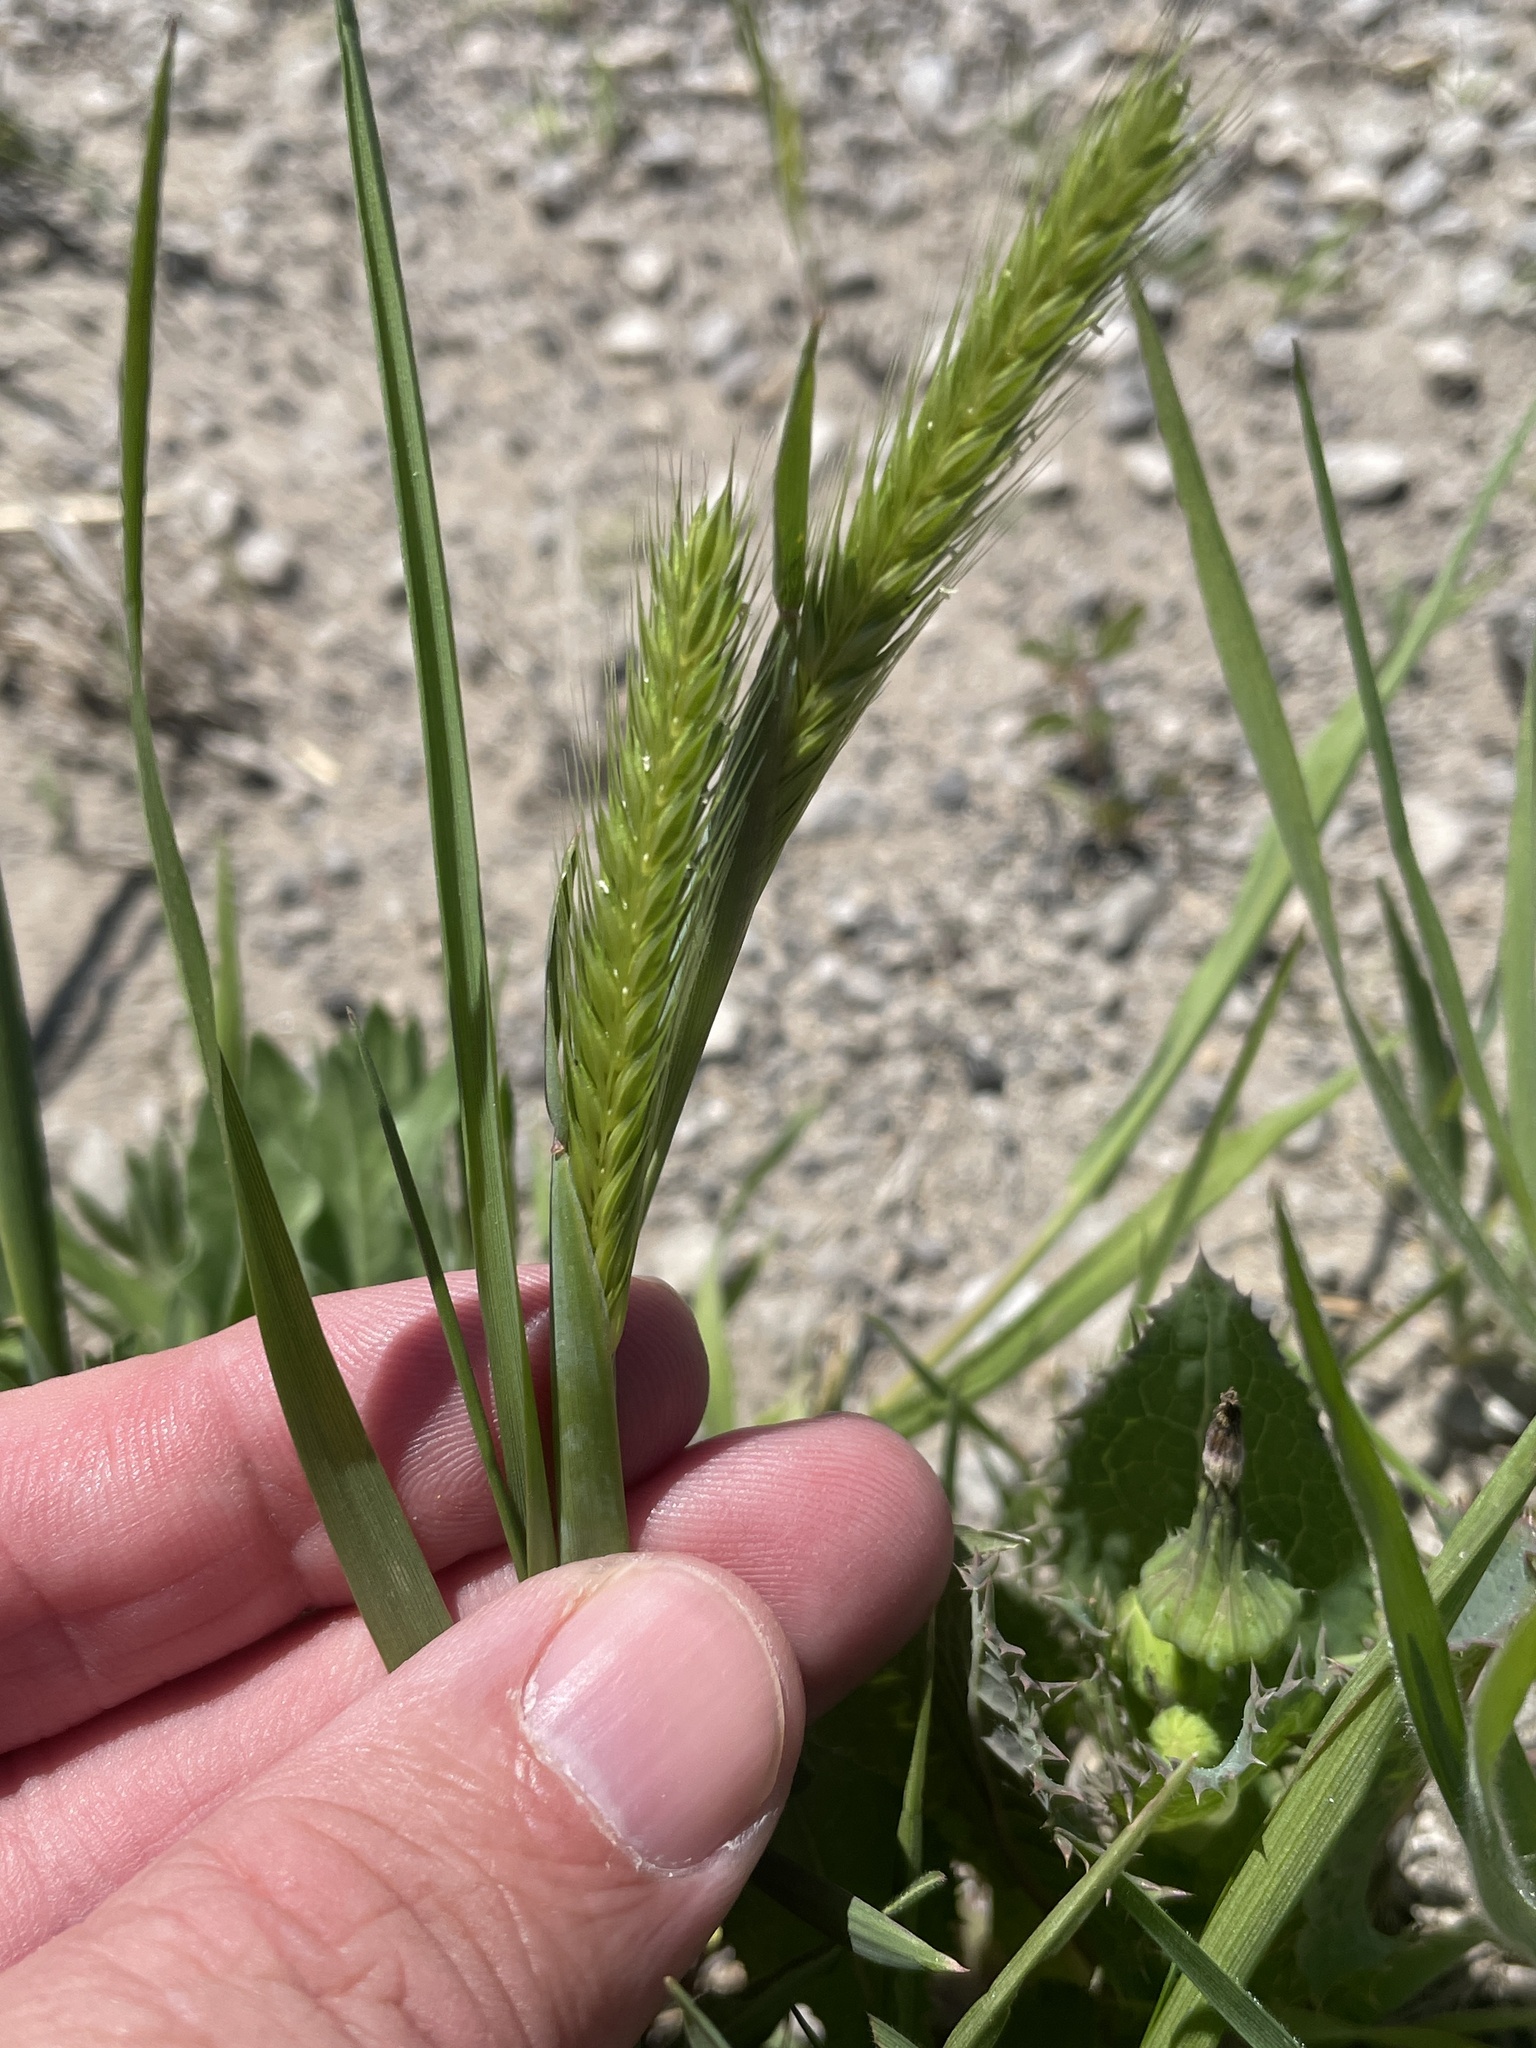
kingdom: Plantae
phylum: Tracheophyta
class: Liliopsida
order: Poales
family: Poaceae
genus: Hordeum
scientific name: Hordeum pusillum
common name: Little barley
